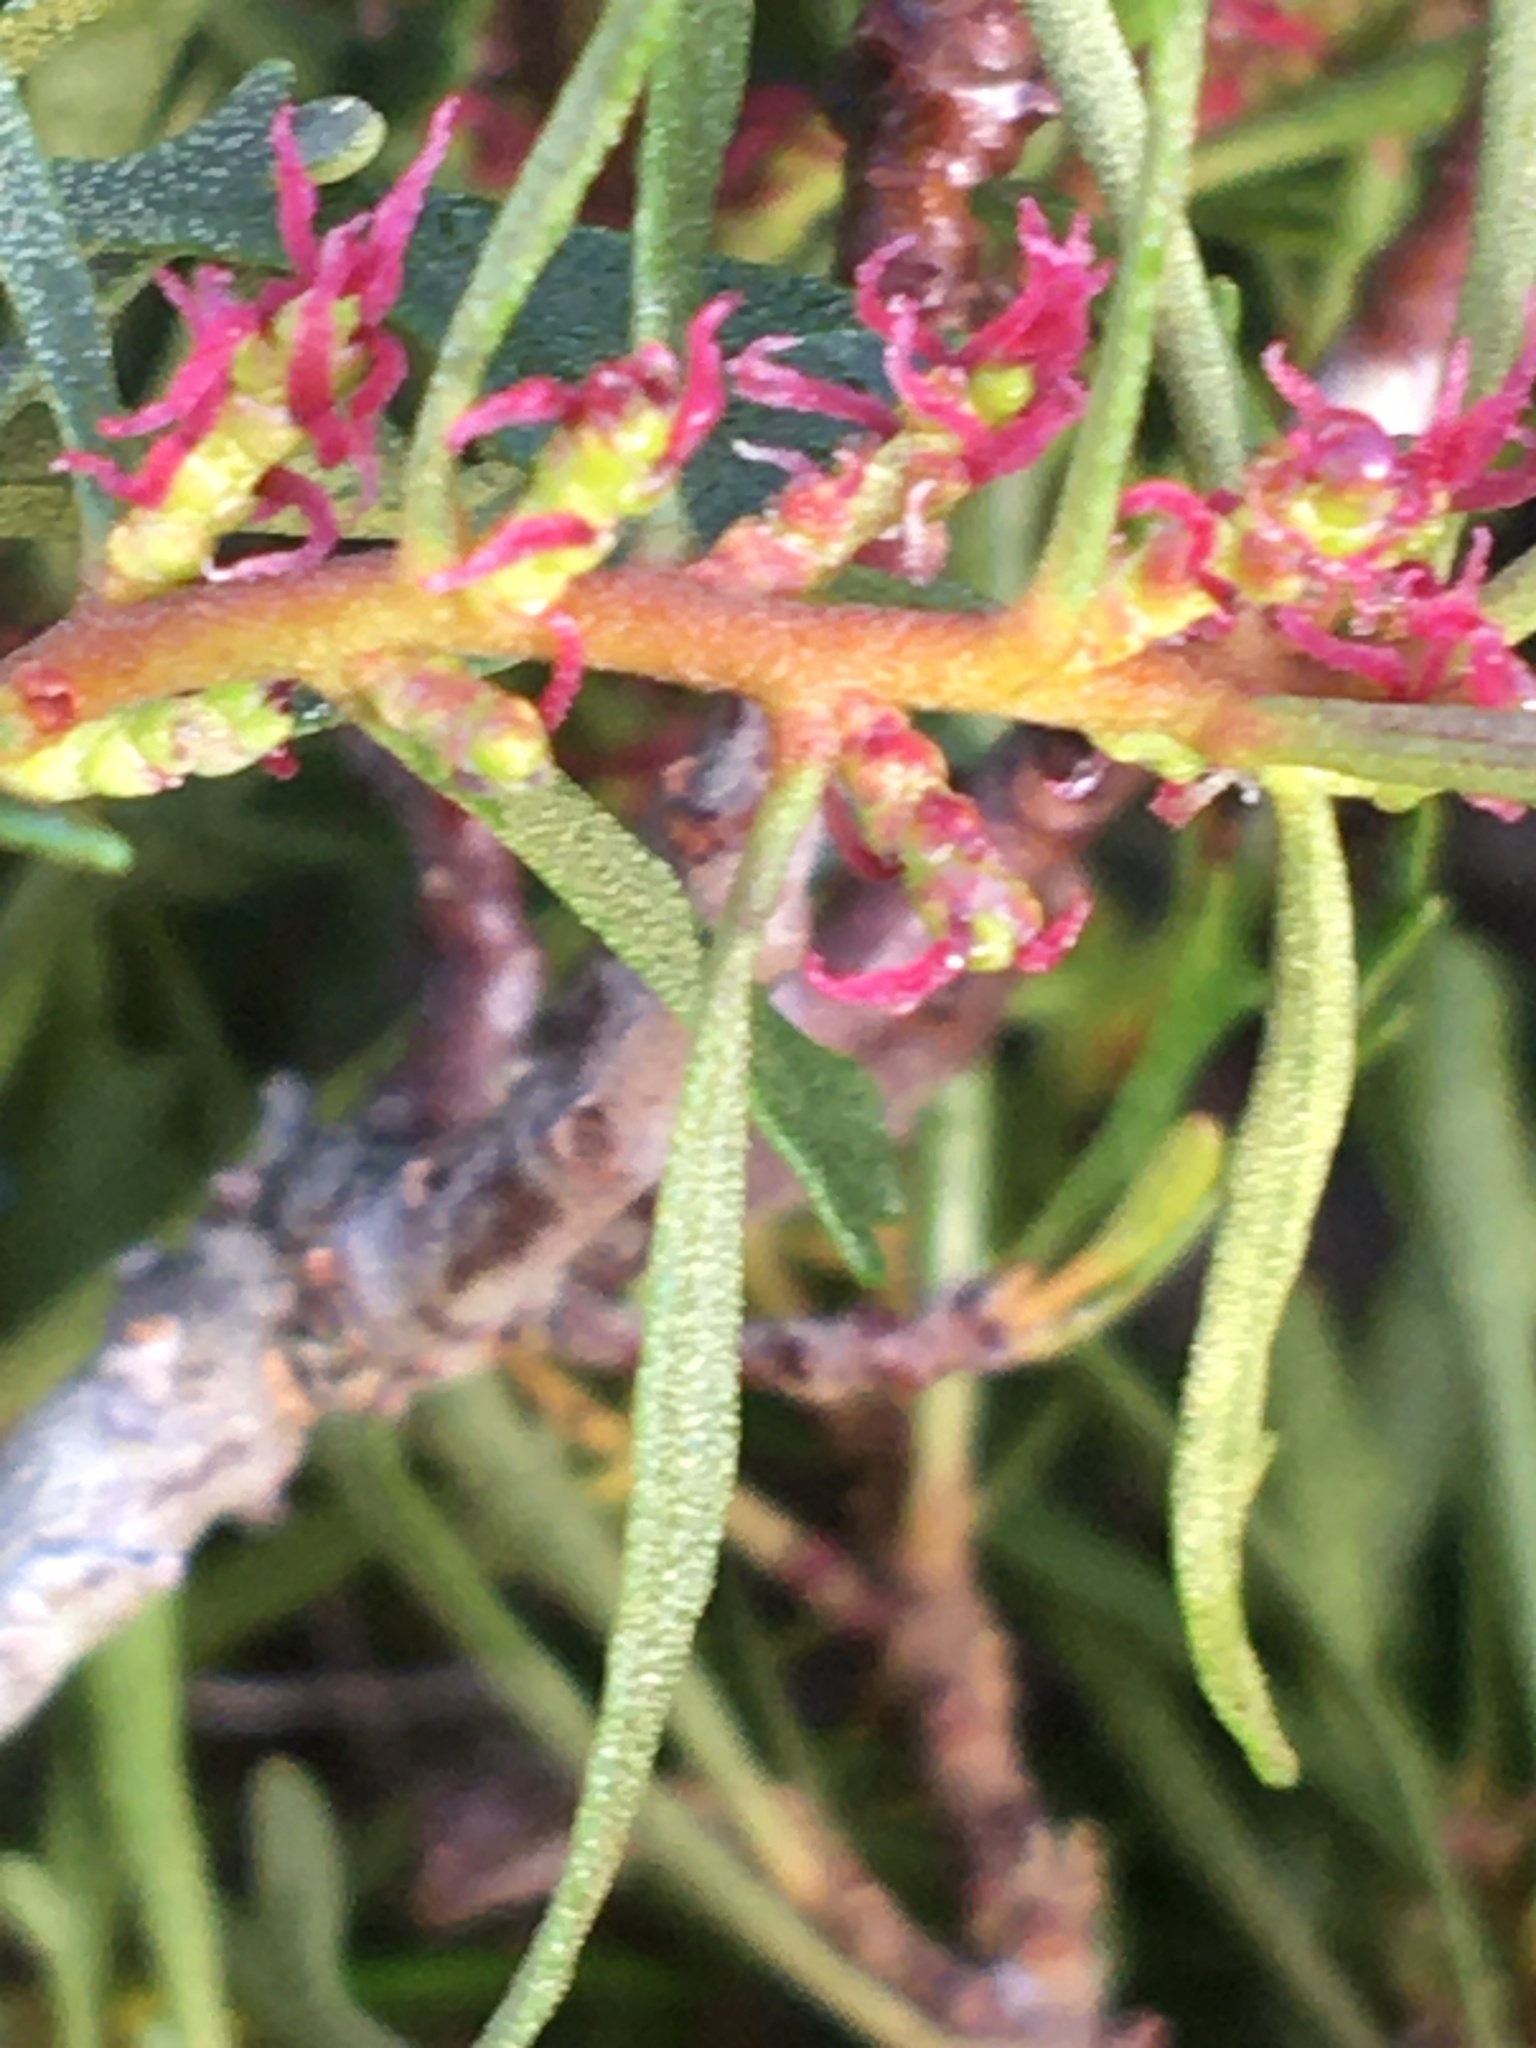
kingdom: Plantae
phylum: Tracheophyta
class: Magnoliopsida
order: Fagales
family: Myricaceae
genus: Morella
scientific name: Morella quercifolia
